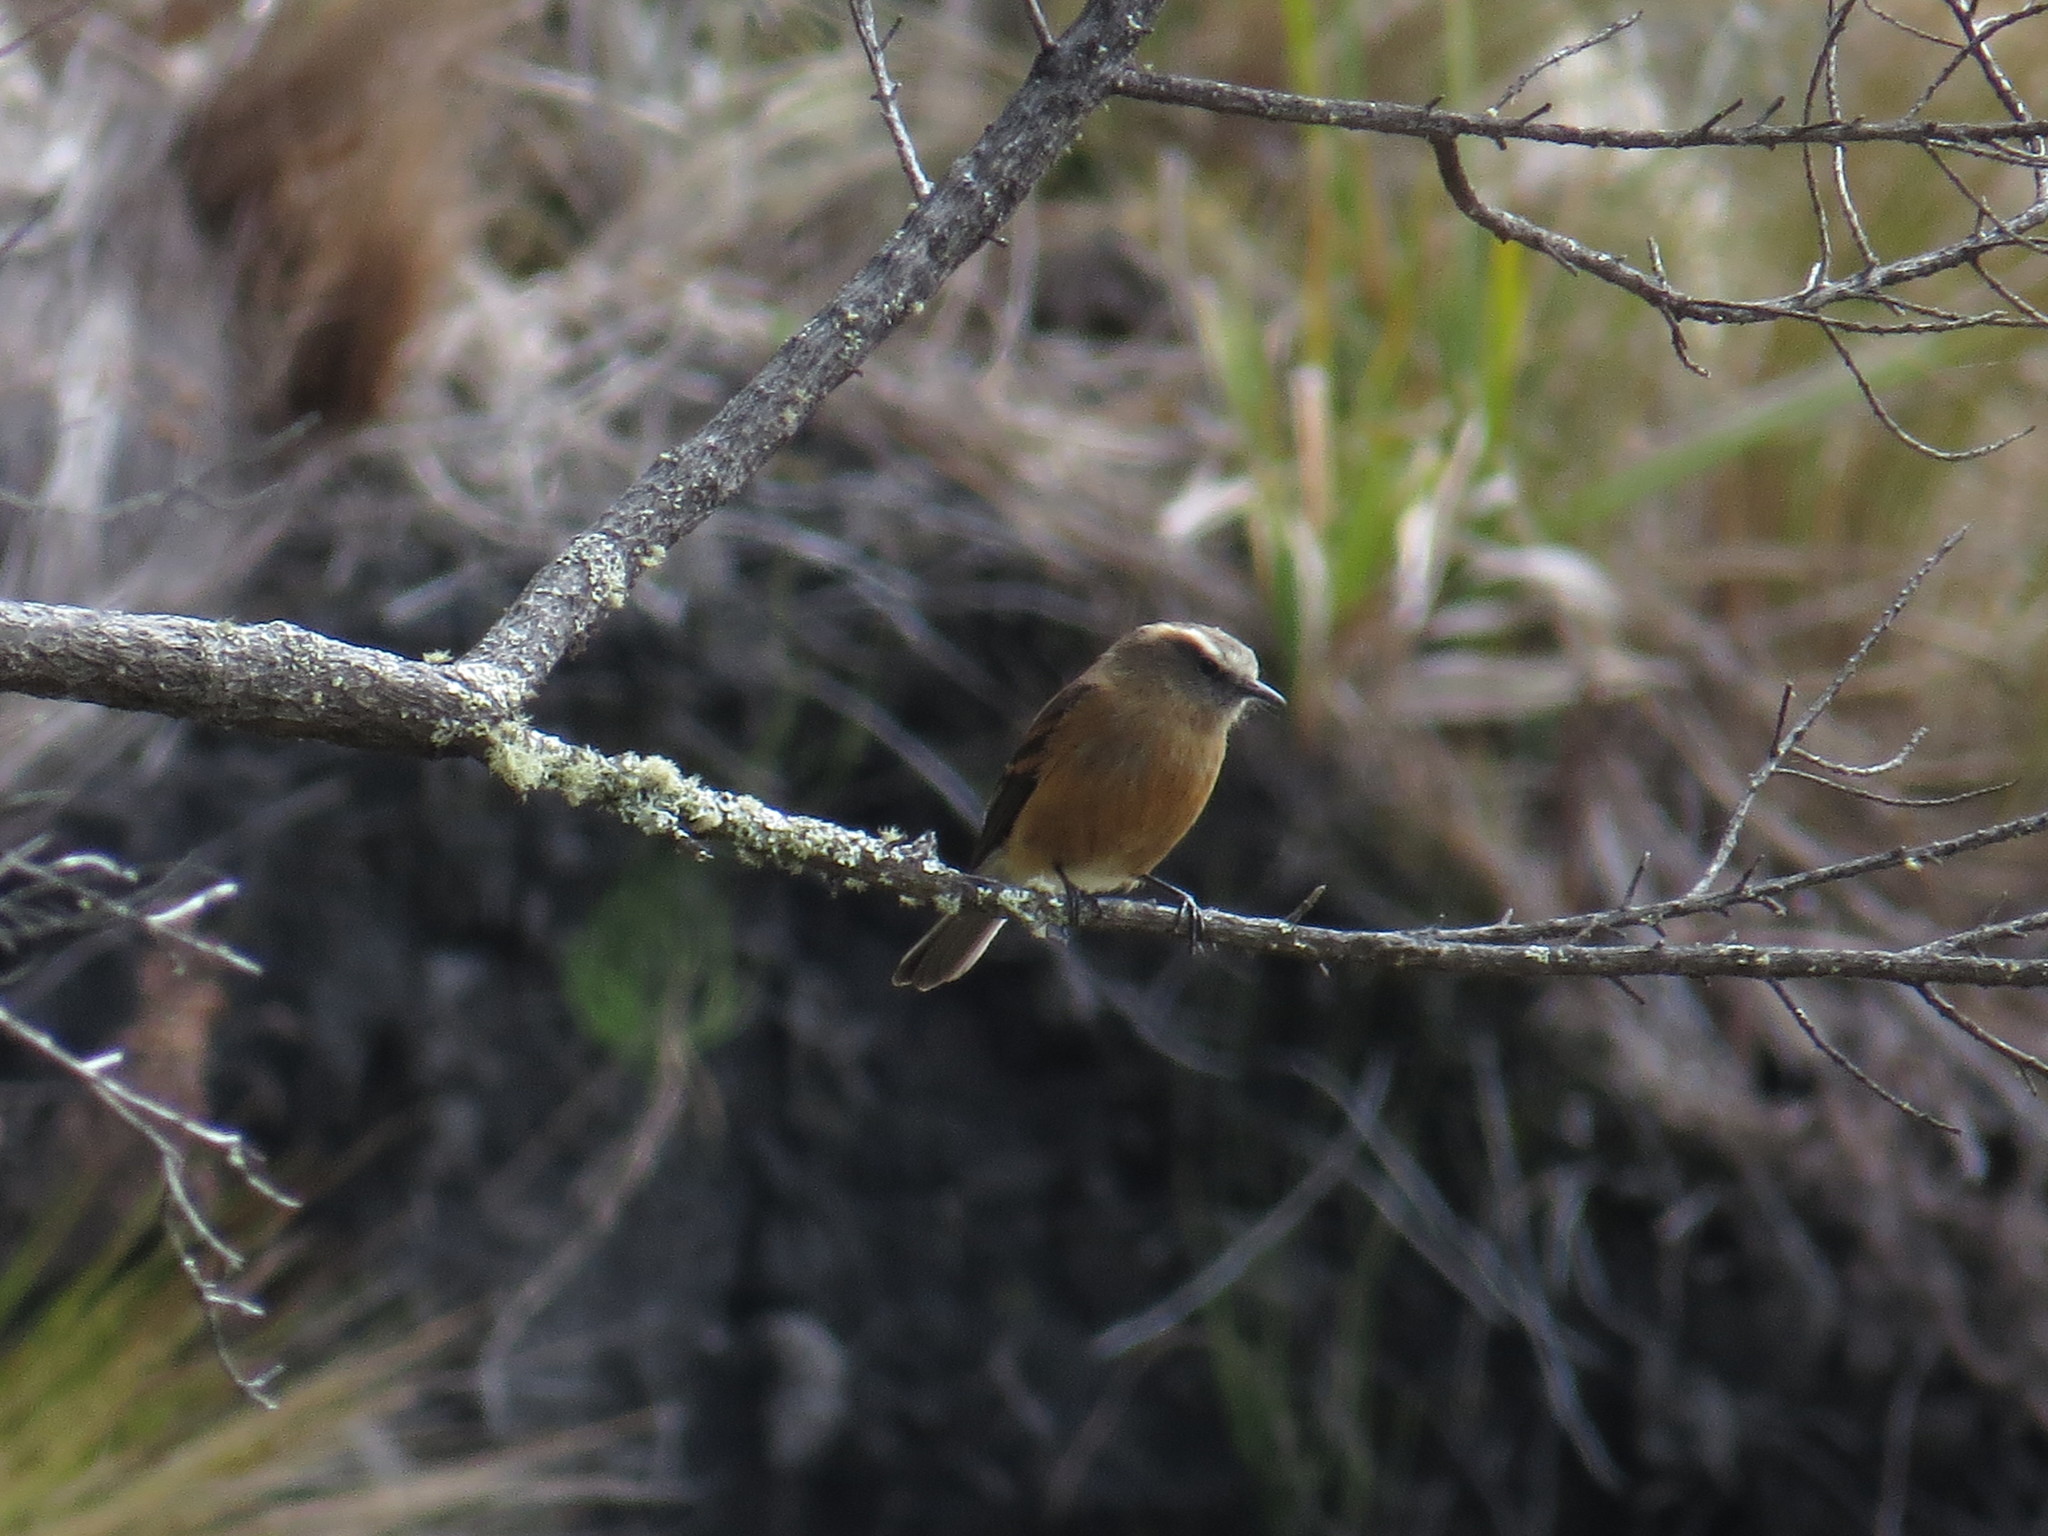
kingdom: Animalia
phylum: Chordata
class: Aves
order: Passeriformes
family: Tyrannidae
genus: Ochthoeca
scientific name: Ochthoeca fumicolor
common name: Brown-backed chat-tyrant
